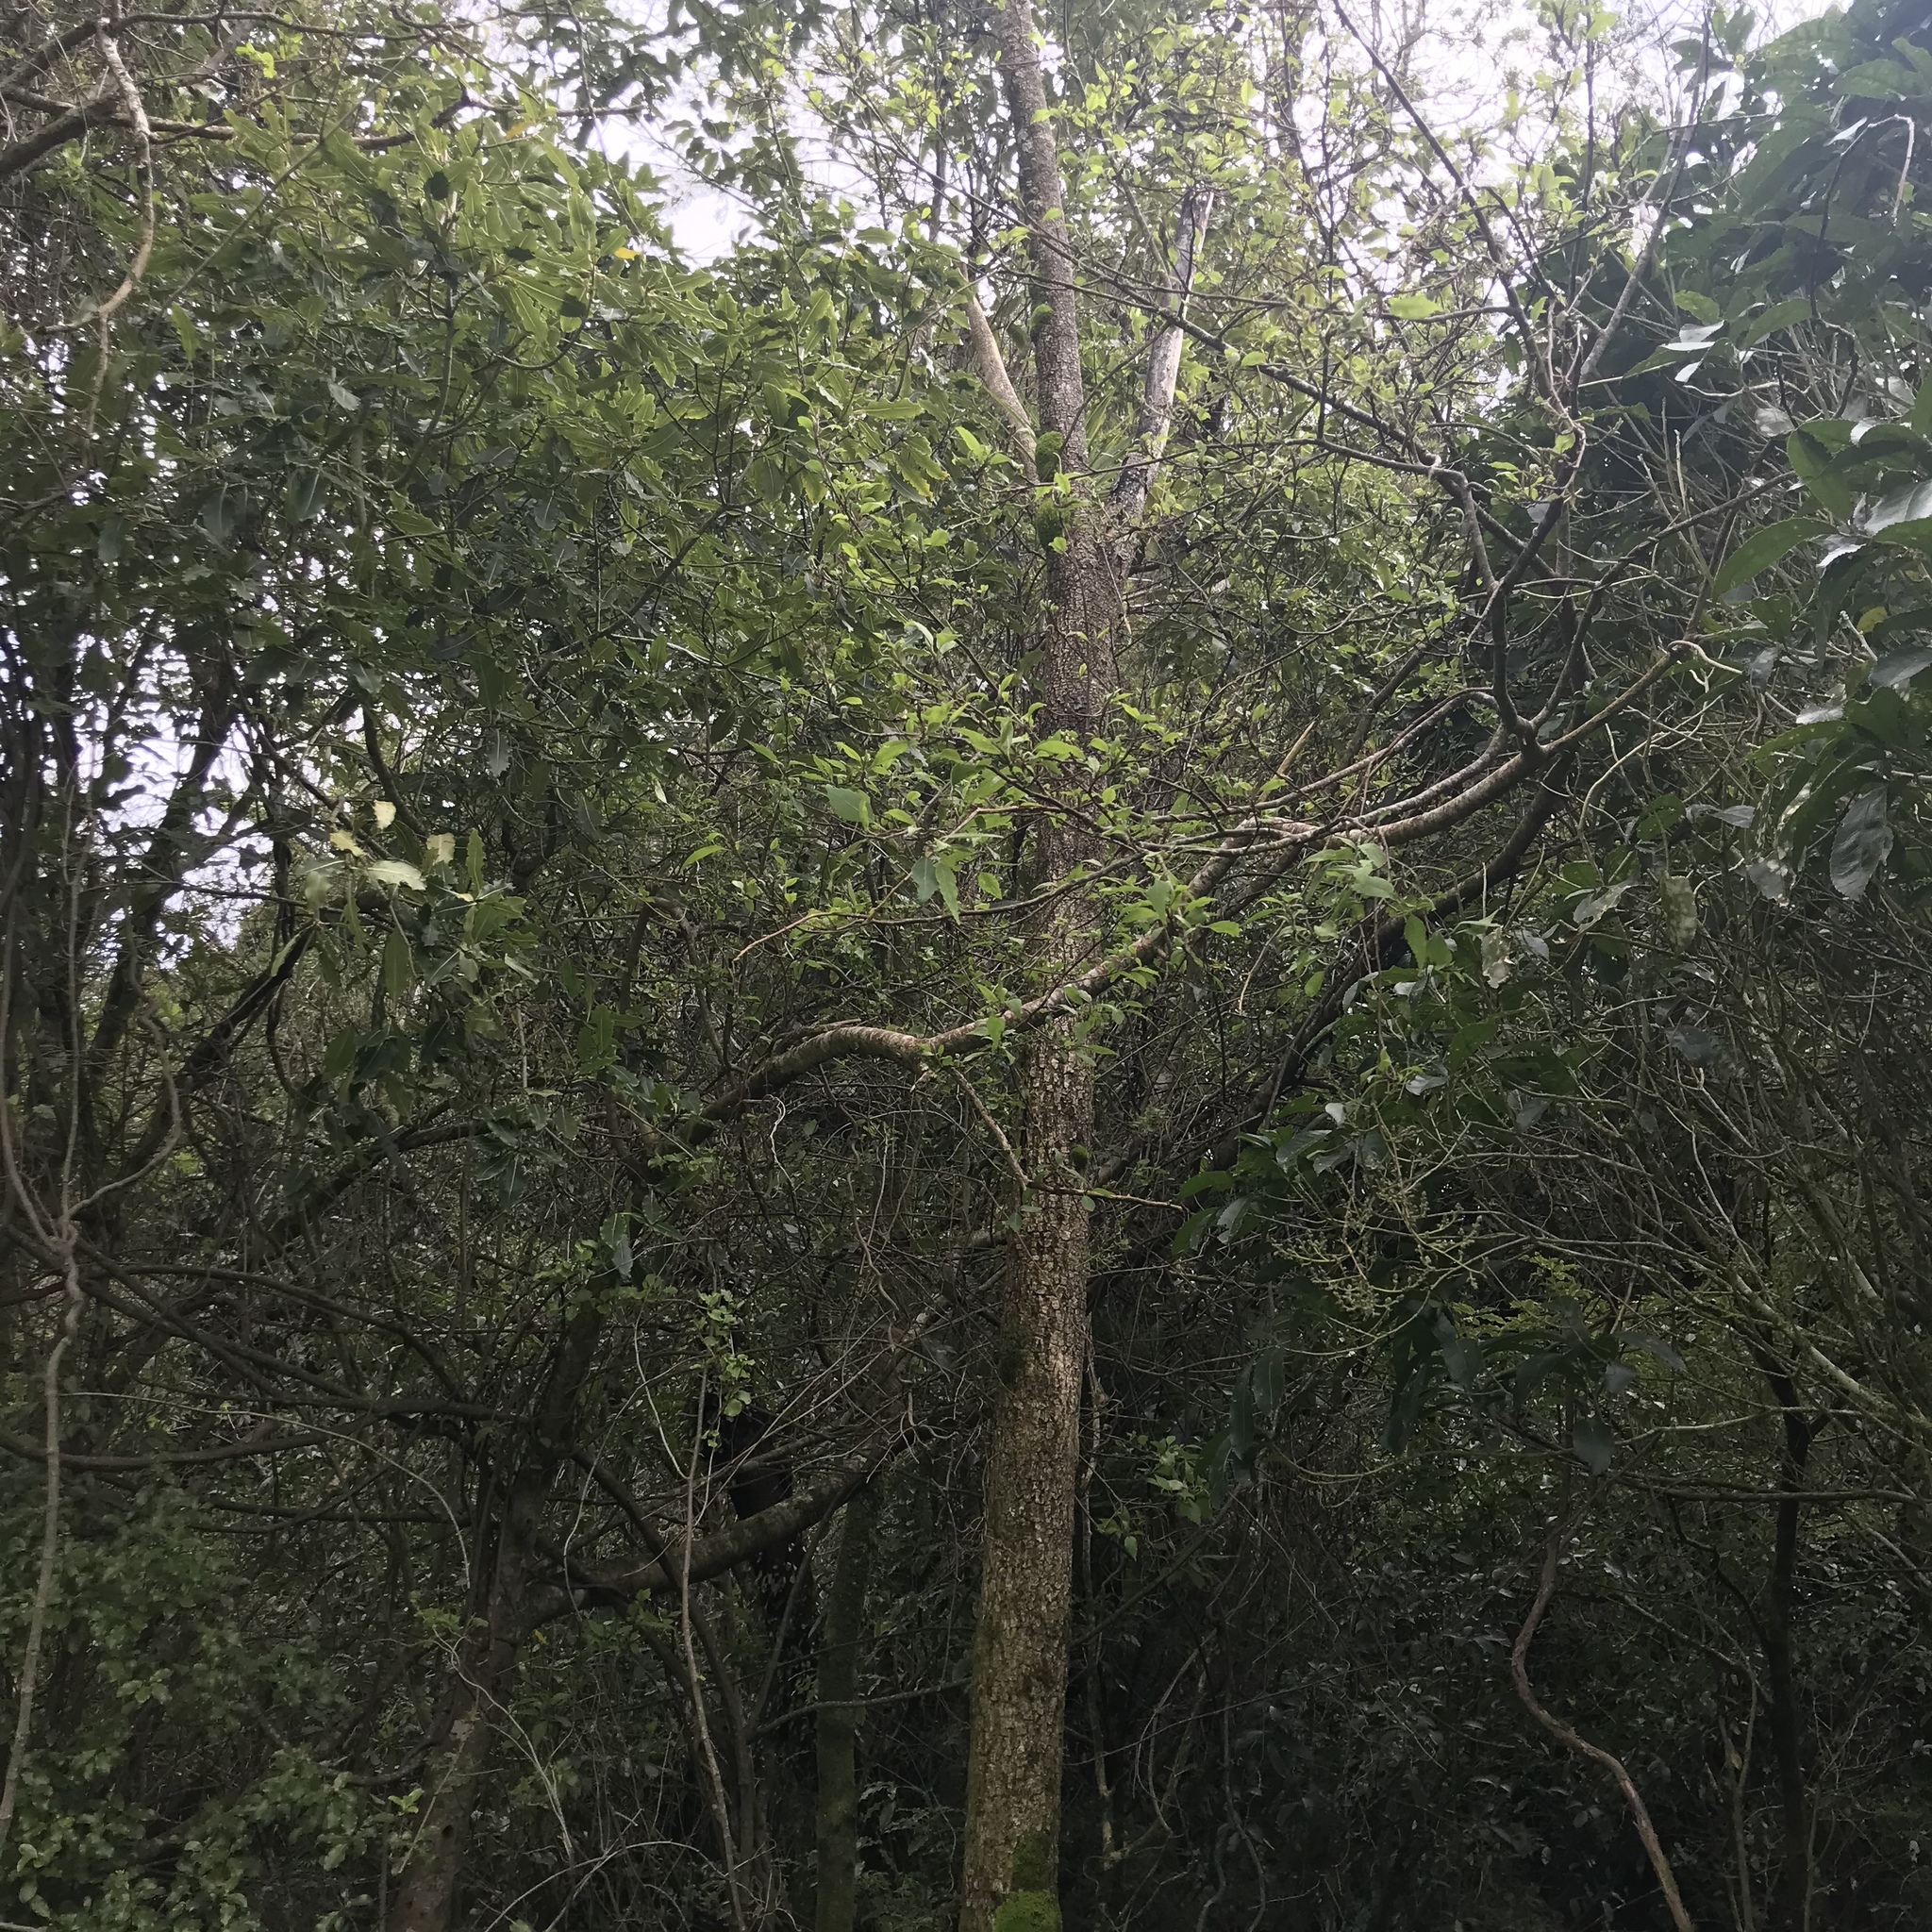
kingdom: Plantae
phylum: Tracheophyta
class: Magnoliopsida
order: Malvales
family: Malvaceae
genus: Plagianthus
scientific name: Plagianthus regius
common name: Manatu
